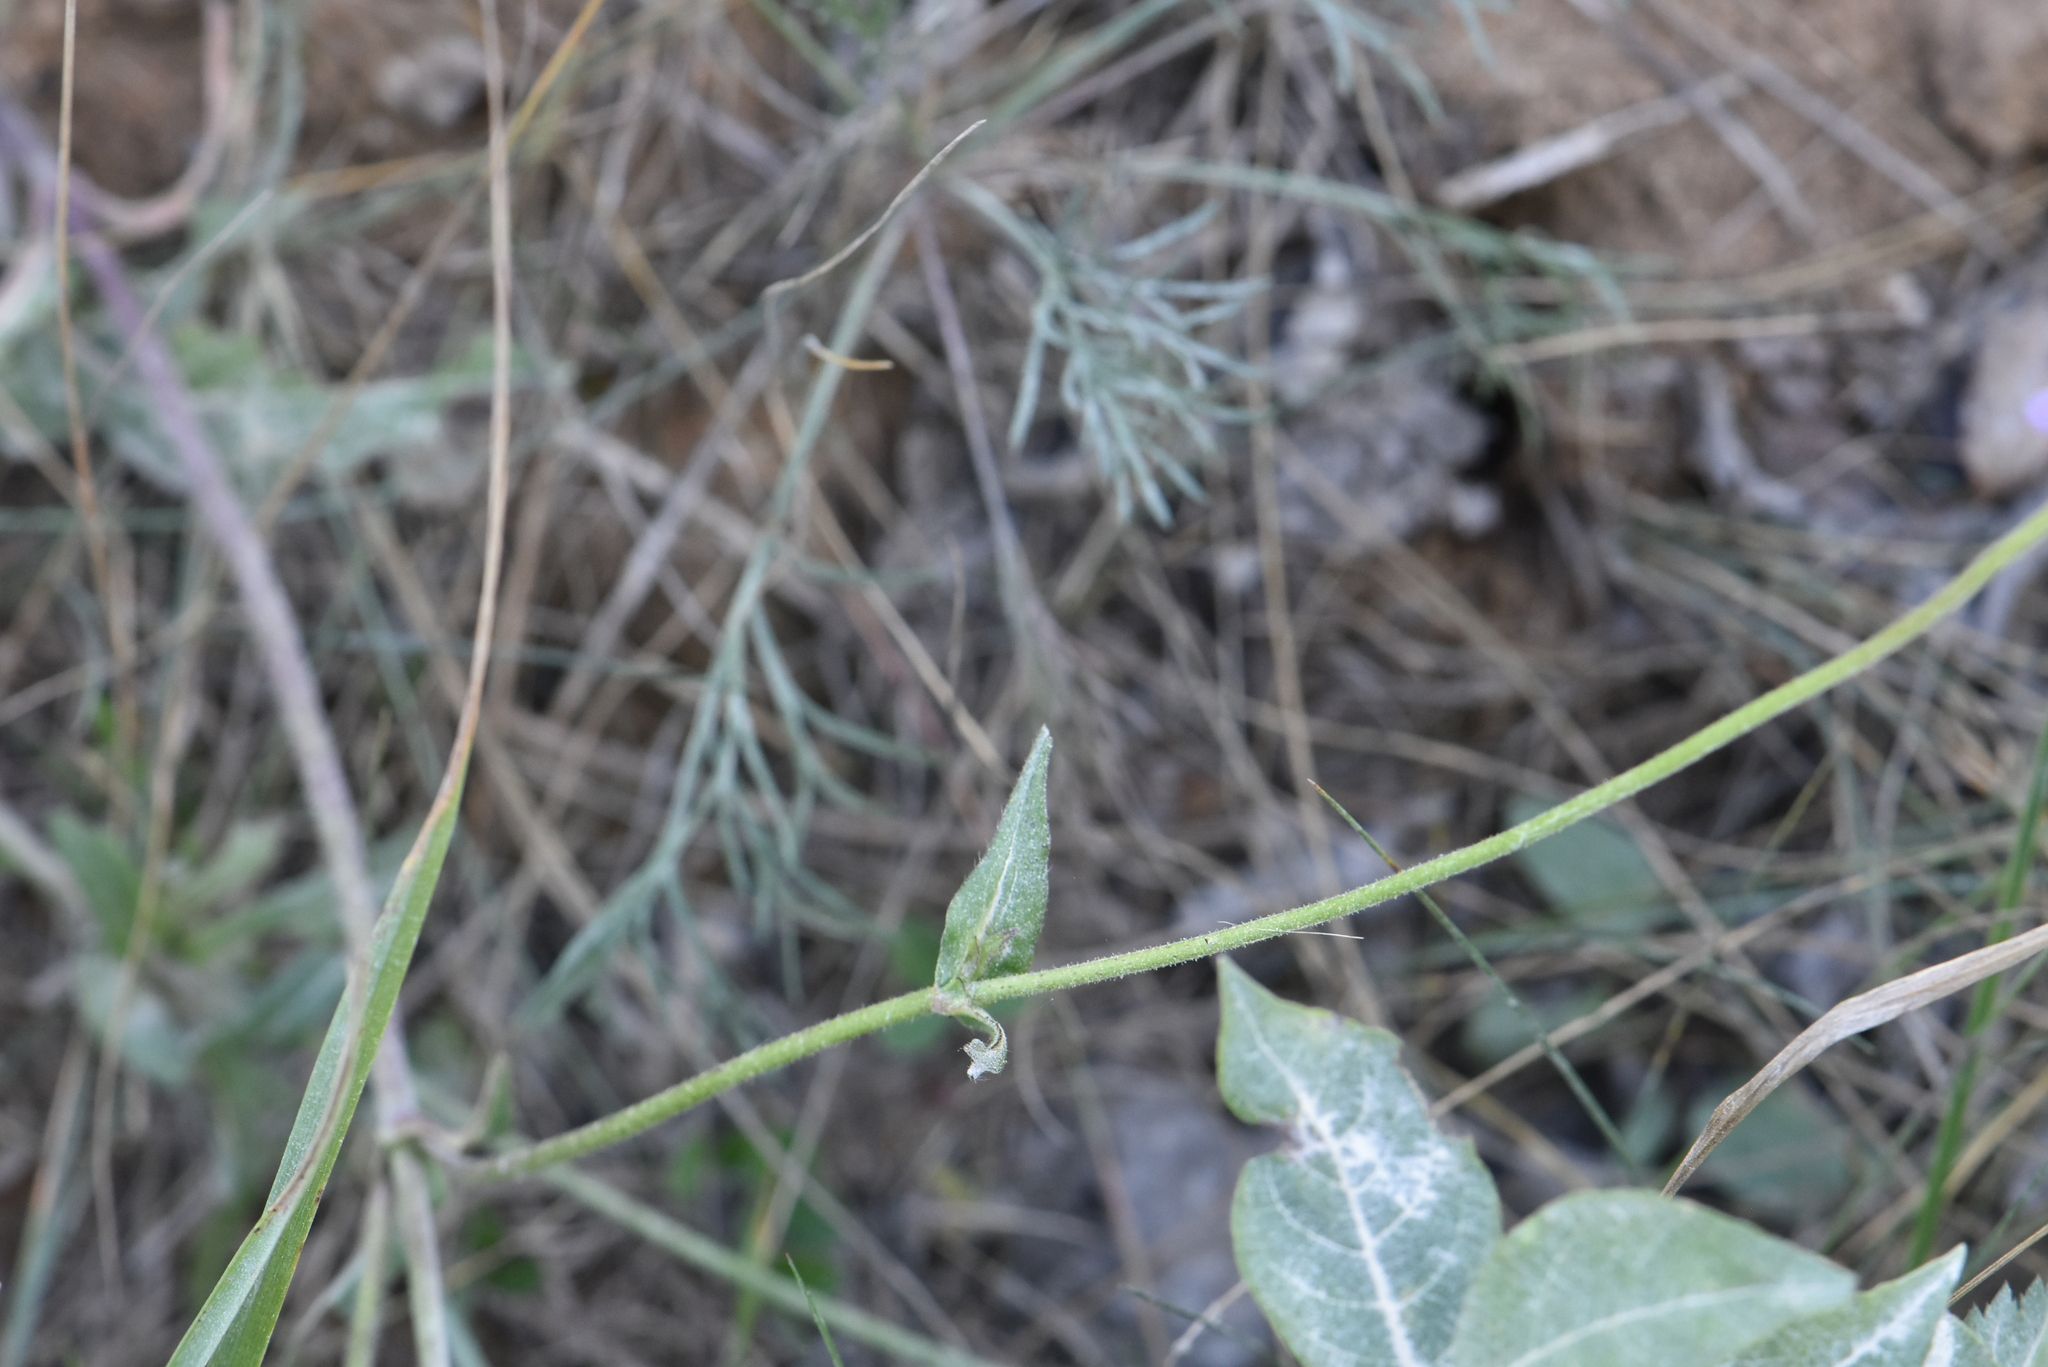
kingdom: Plantae
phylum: Tracheophyta
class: Magnoliopsida
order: Dipsacales
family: Caprifoliaceae
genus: Knautia
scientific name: Knautia arvensis
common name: Field scabiosa
